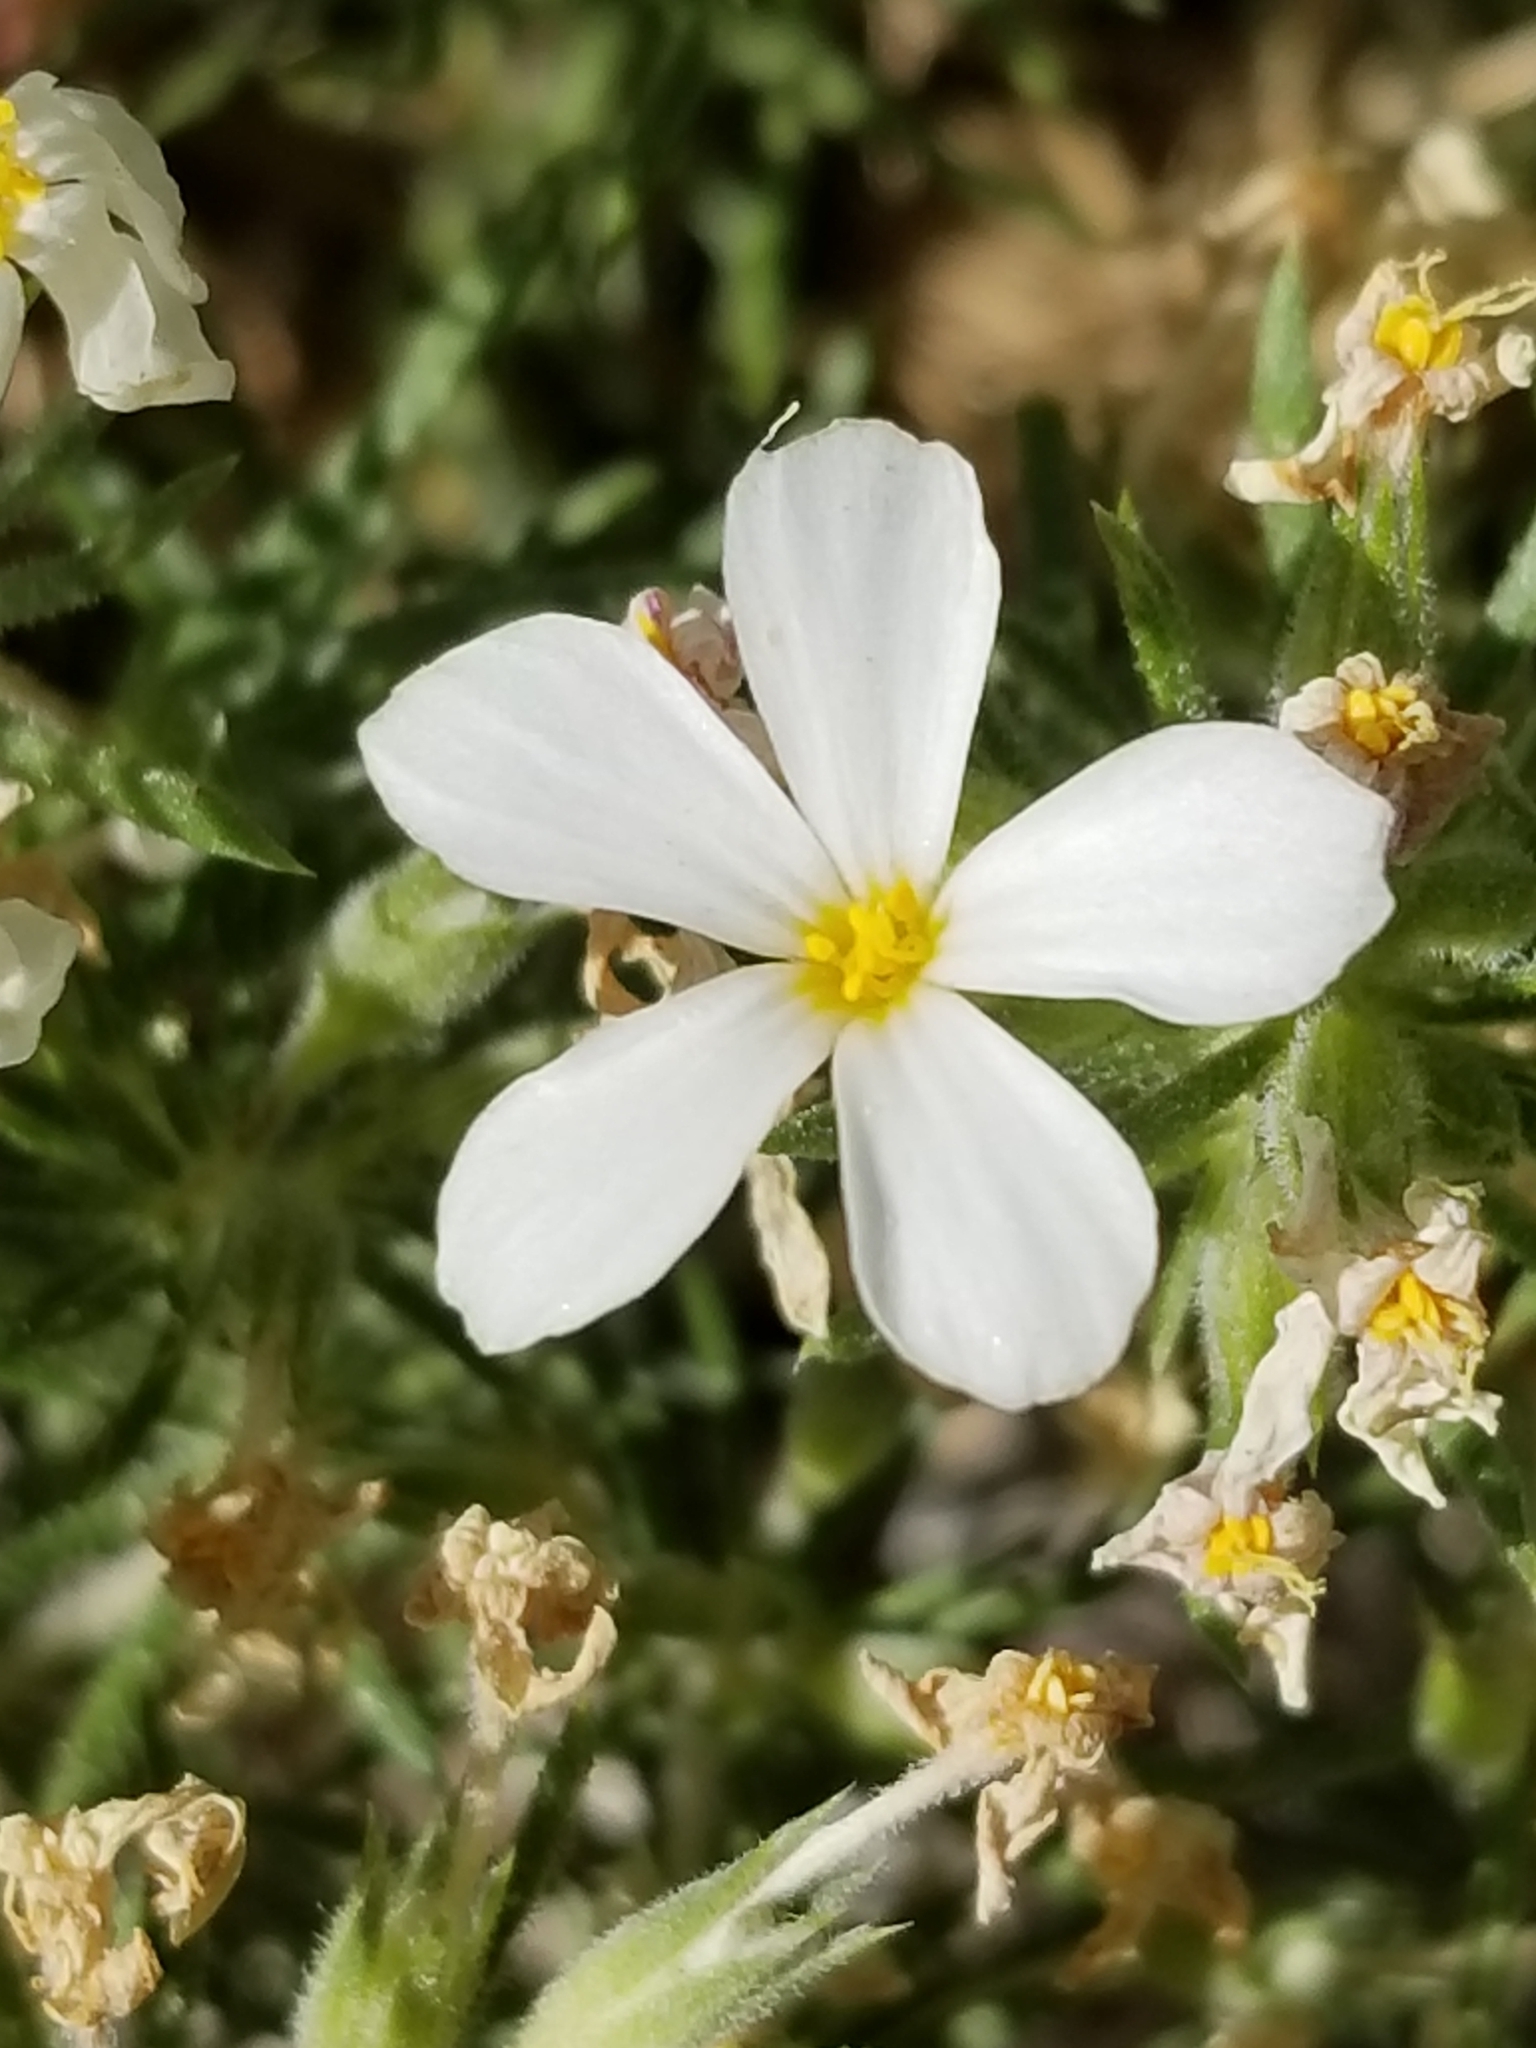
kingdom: Plantae
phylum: Tracheophyta
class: Magnoliopsida
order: Ericales
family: Polemoniaceae
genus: Leptosiphon
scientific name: Leptosiphon floribundum
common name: Many-flower linanthus
